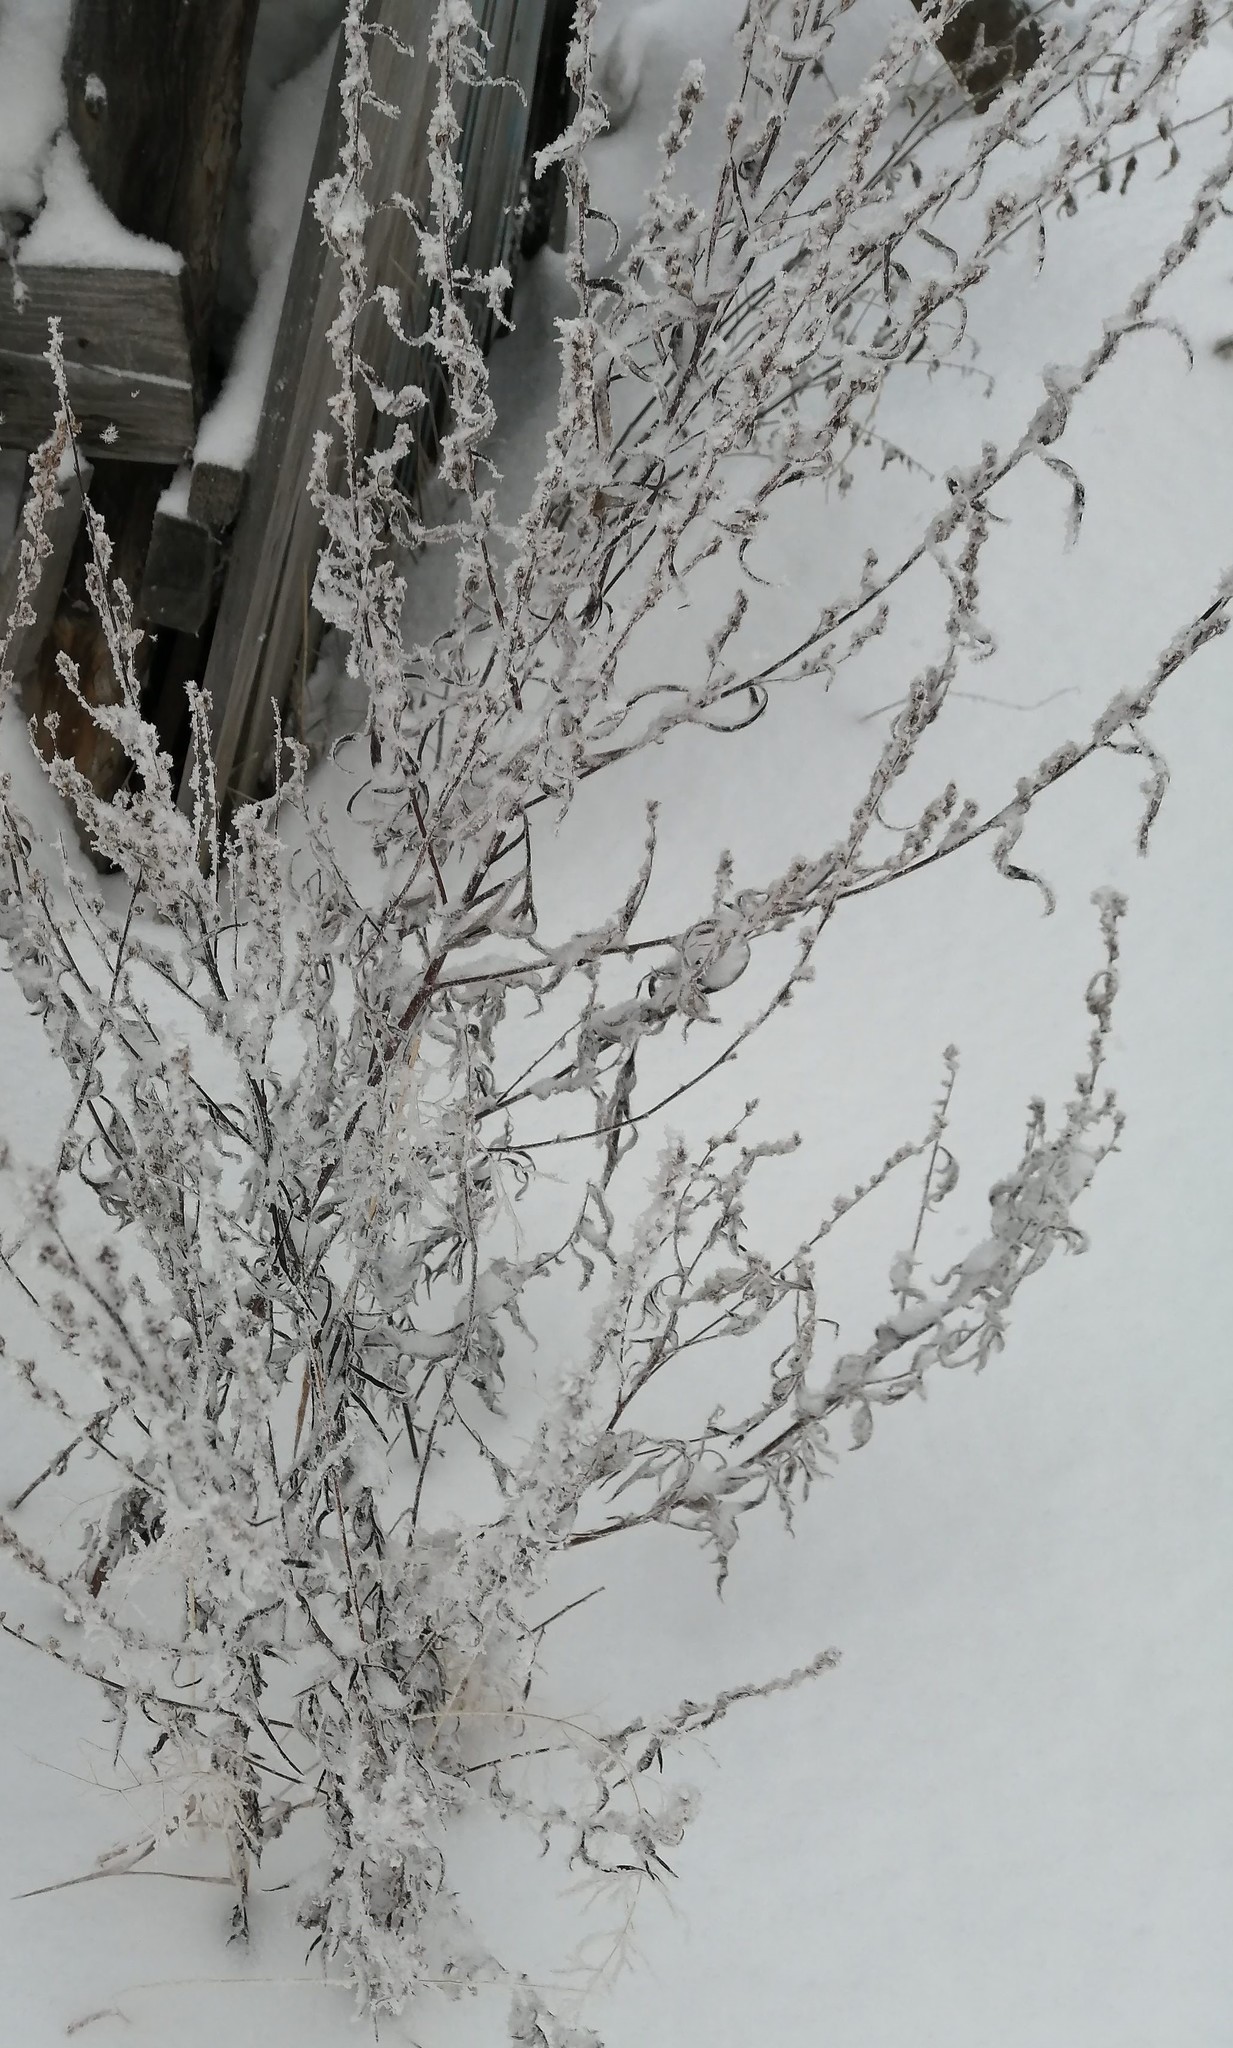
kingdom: Plantae
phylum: Tracheophyta
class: Magnoliopsida
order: Asterales
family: Asteraceae
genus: Artemisia
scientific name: Artemisia vulgaris
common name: Mugwort
